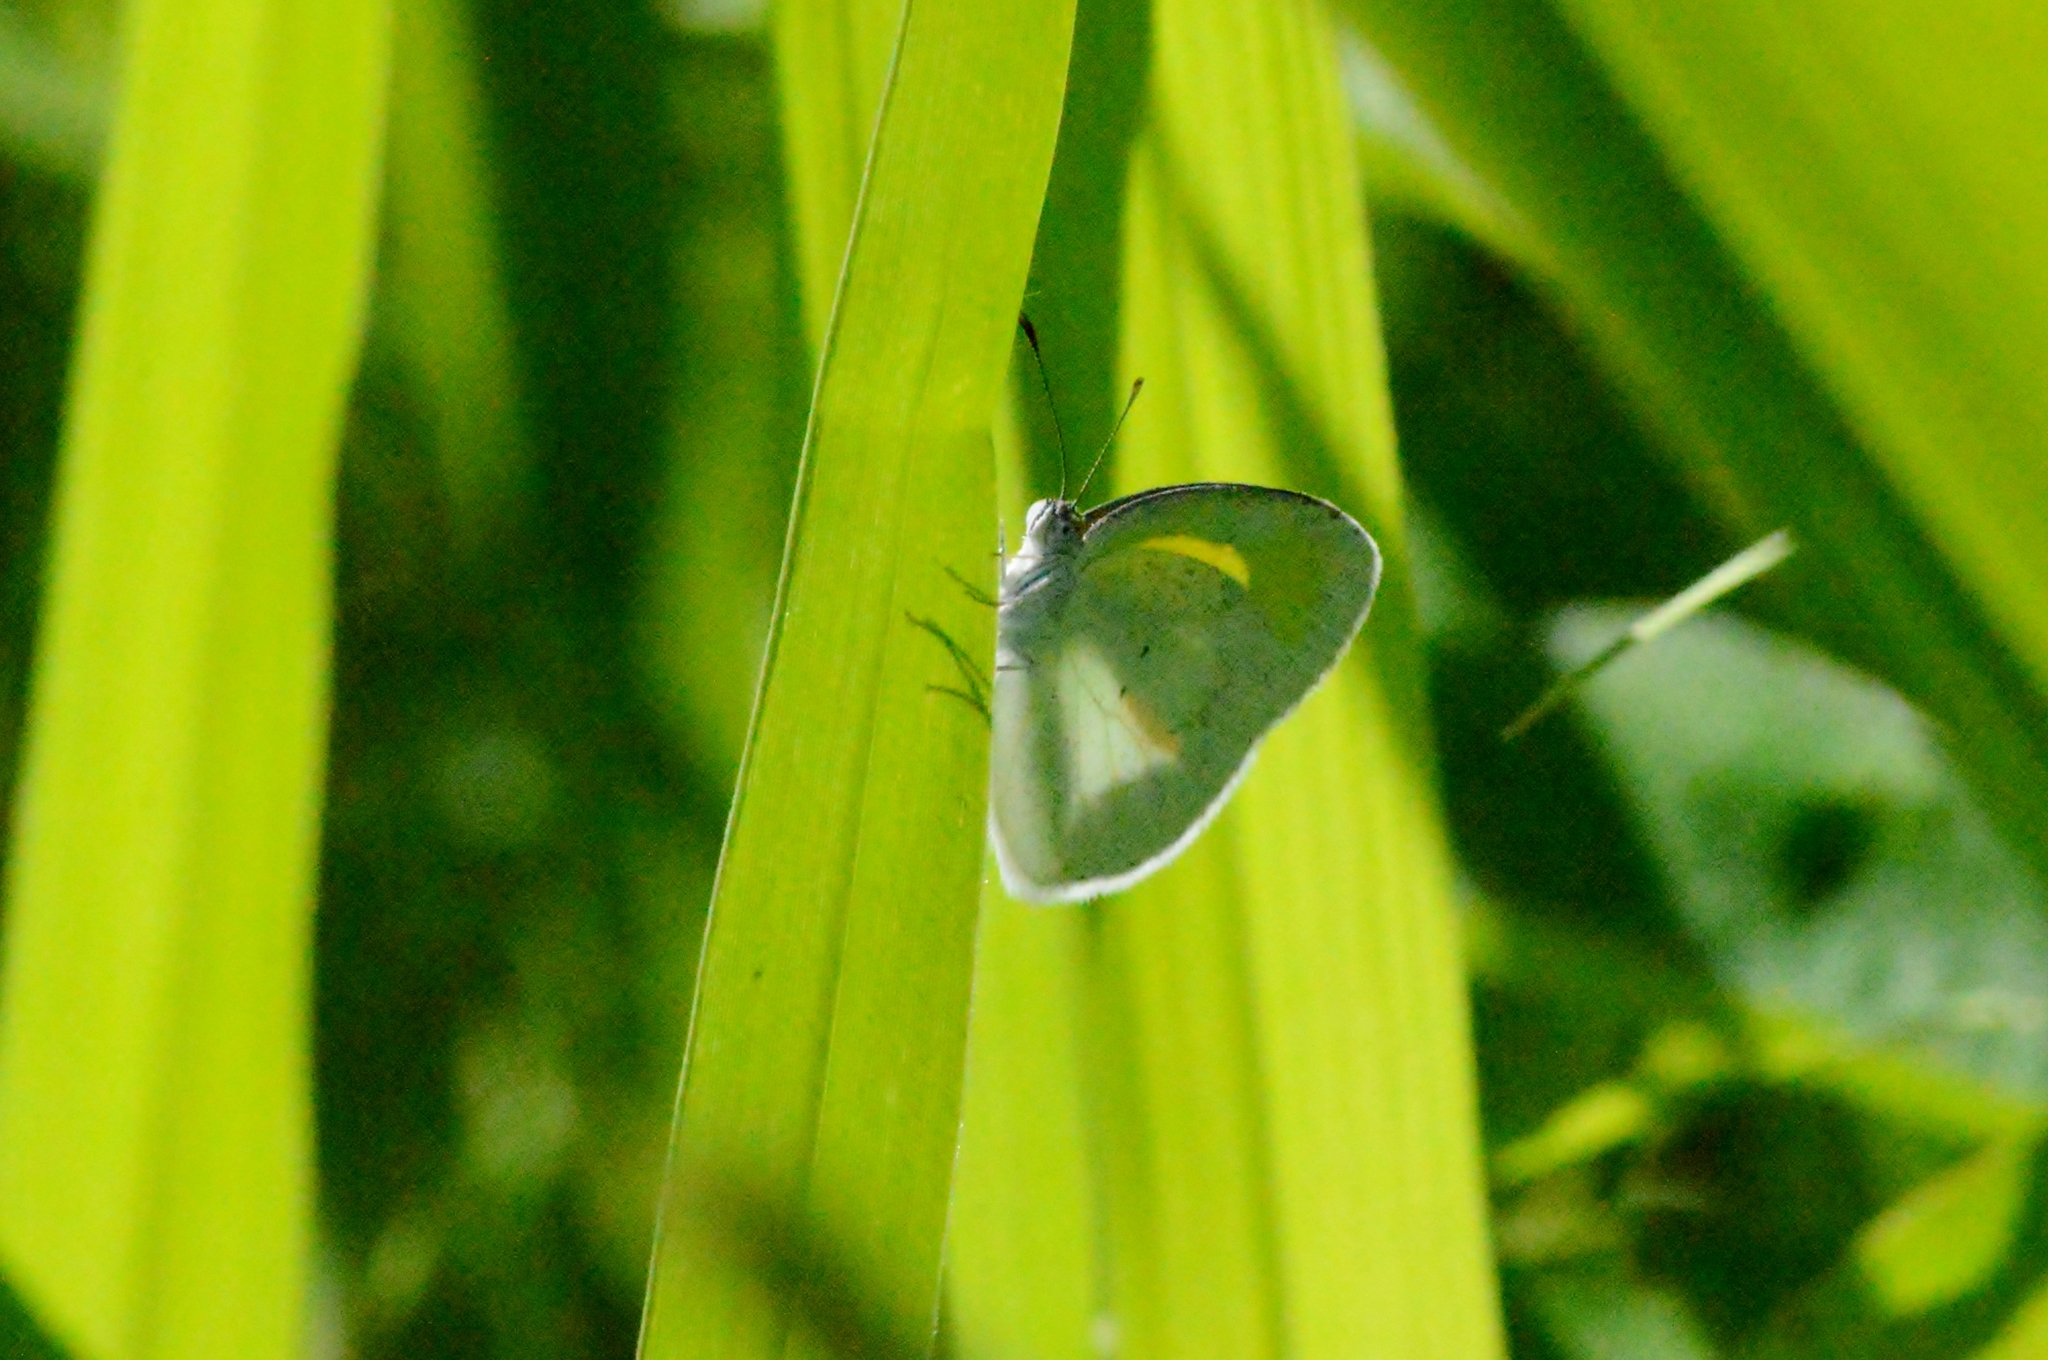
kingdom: Animalia
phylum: Arthropoda
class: Insecta
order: Lepidoptera
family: Pieridae
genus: Eurema
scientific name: Eurema elathea
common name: Banded yellow
